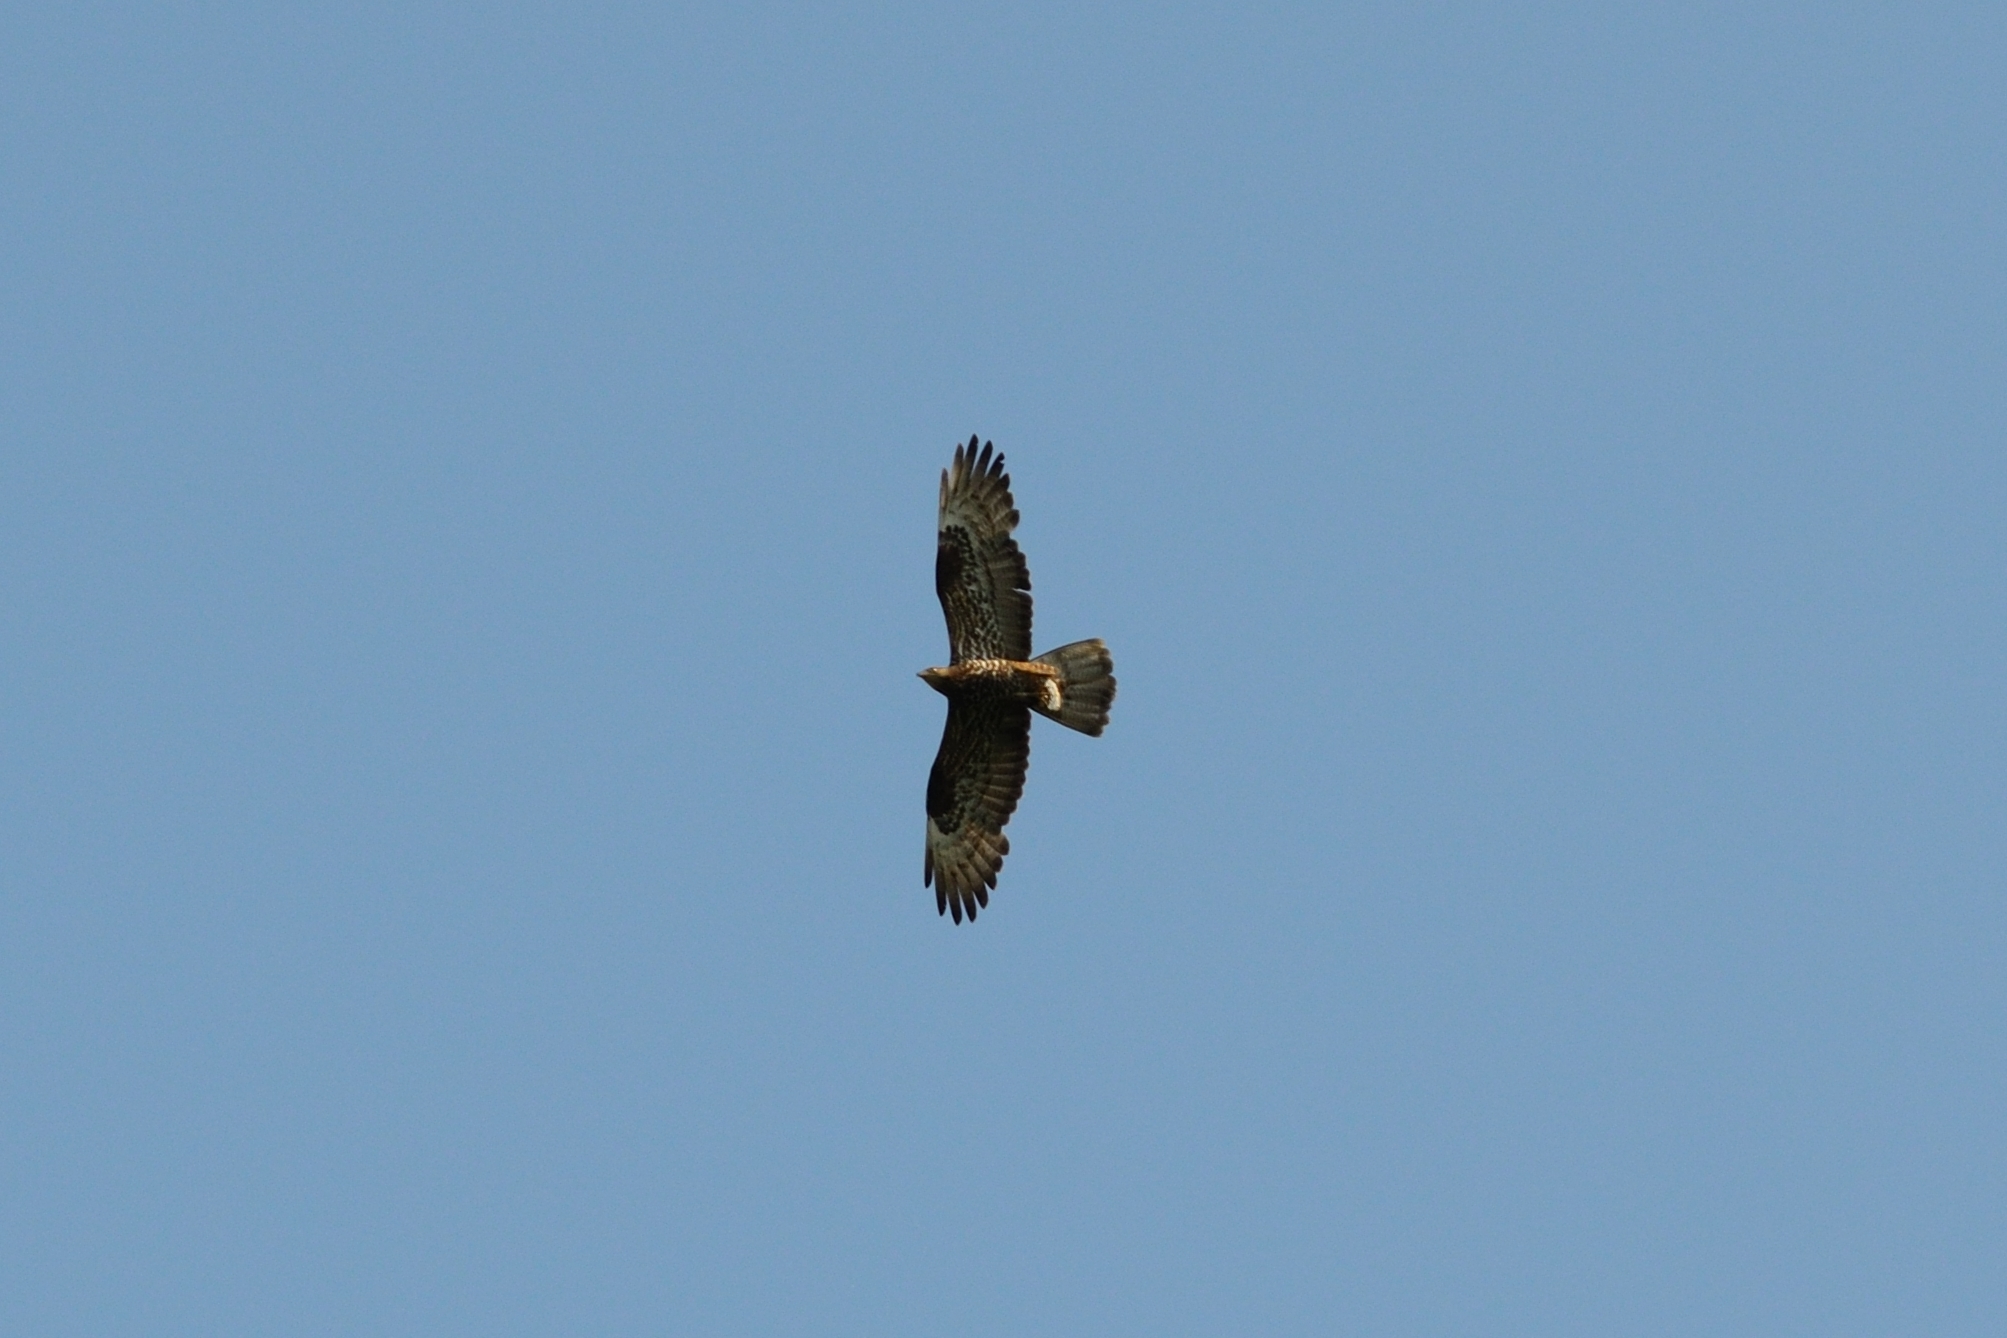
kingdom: Animalia
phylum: Chordata
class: Aves
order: Accipitriformes
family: Accipitridae
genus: Pernis
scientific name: Pernis apivorus
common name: European honey buzzard
